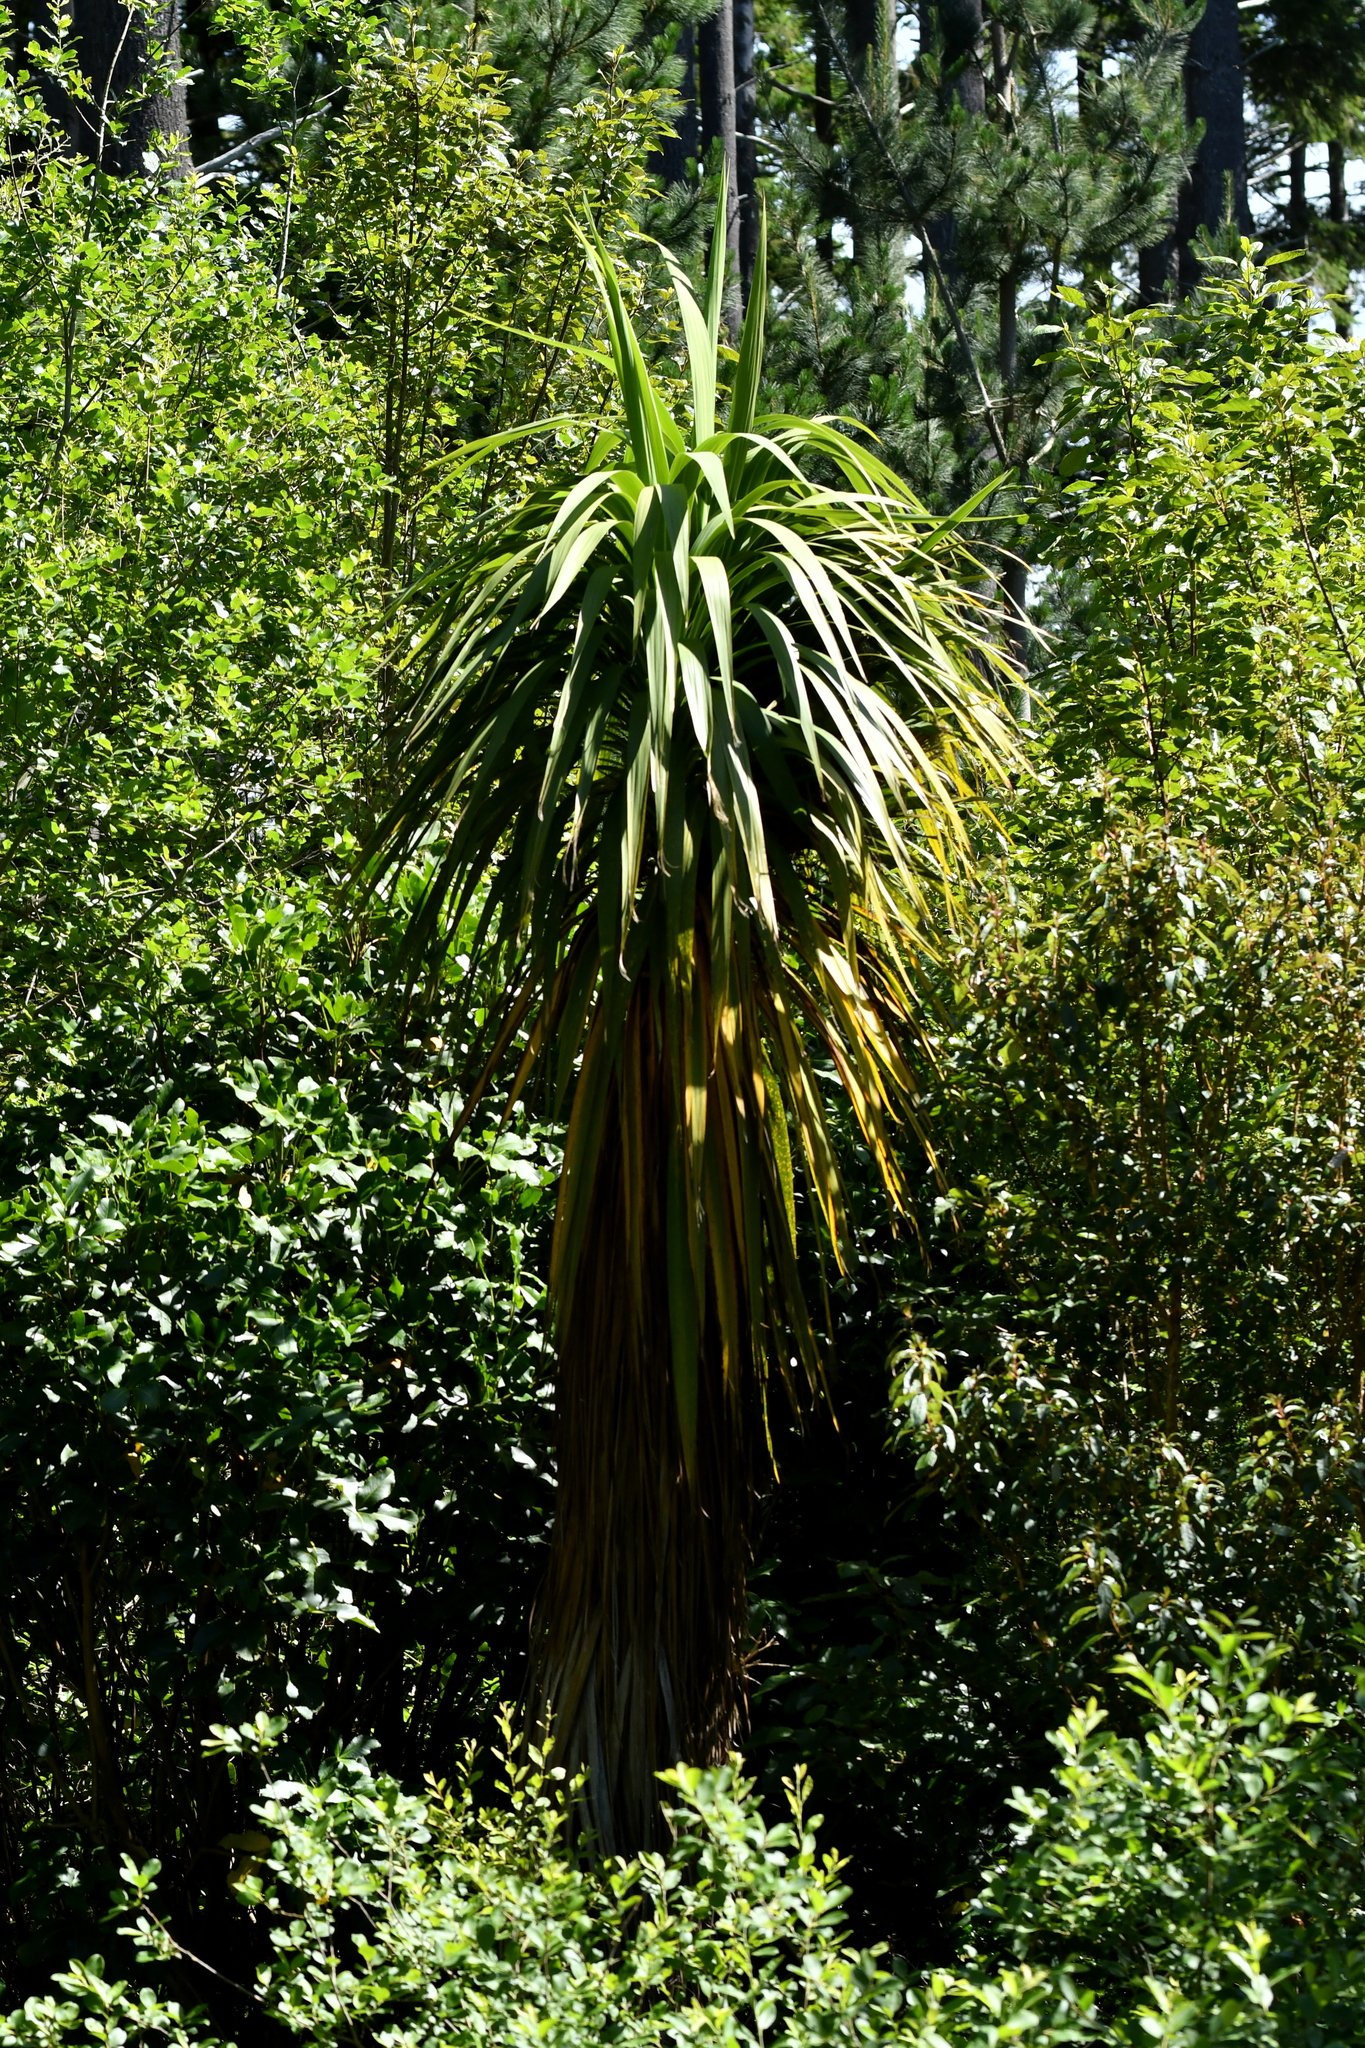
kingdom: Plantae
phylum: Tracheophyta
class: Liliopsida
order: Asparagales
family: Asparagaceae
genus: Cordyline
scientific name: Cordyline australis
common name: Cabbage-palm
